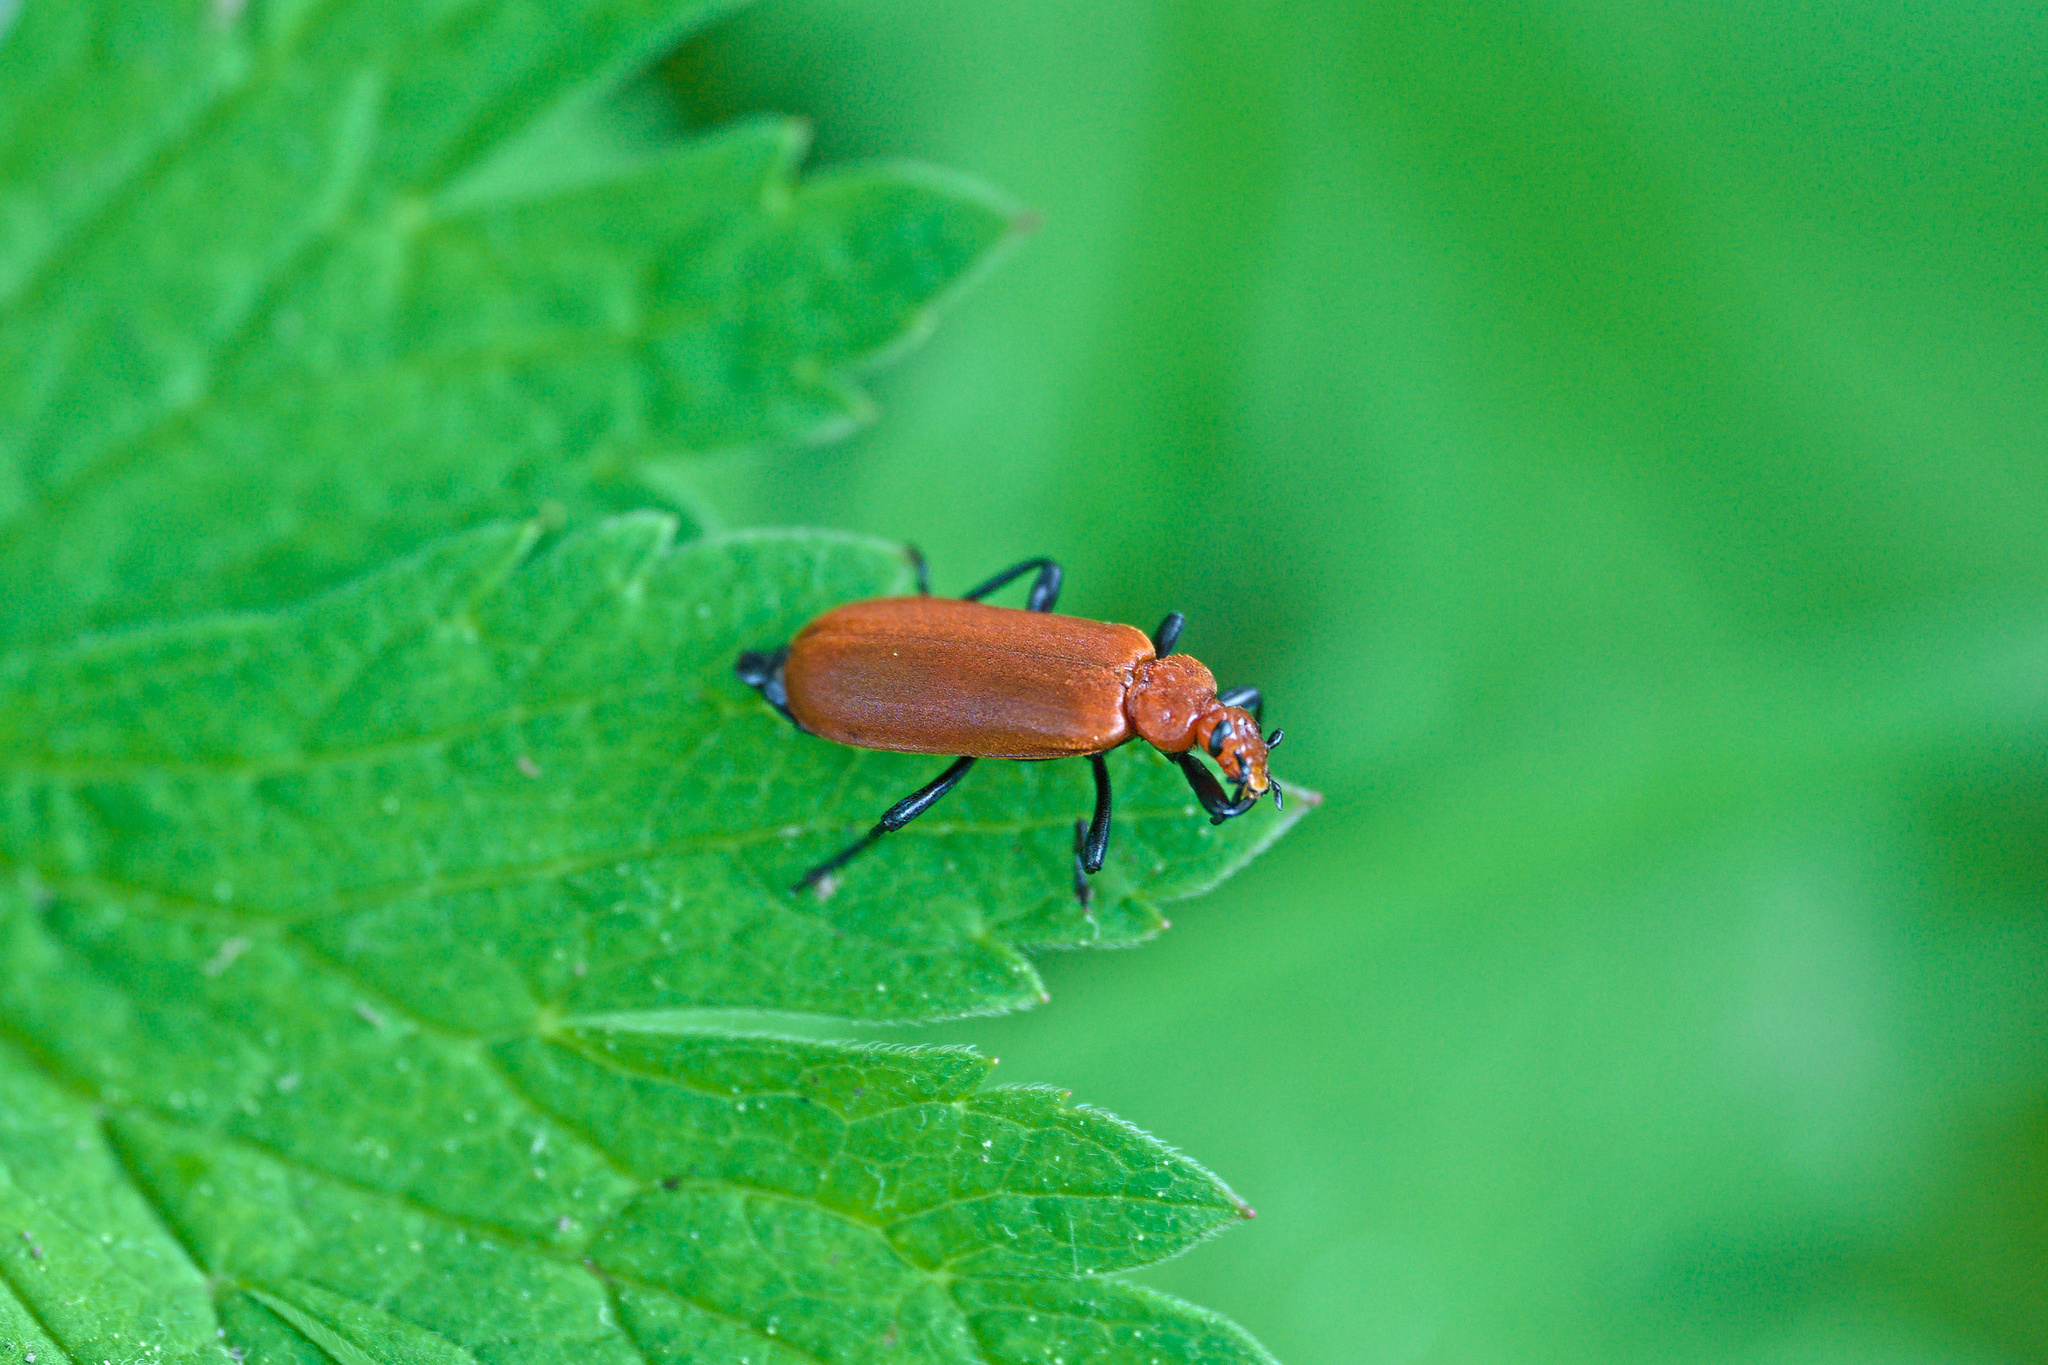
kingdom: Animalia
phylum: Arthropoda
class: Insecta
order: Coleoptera
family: Pyrochroidae
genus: Pyrochroa
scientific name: Pyrochroa serraticornis
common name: Red-headed cardinal beetle
